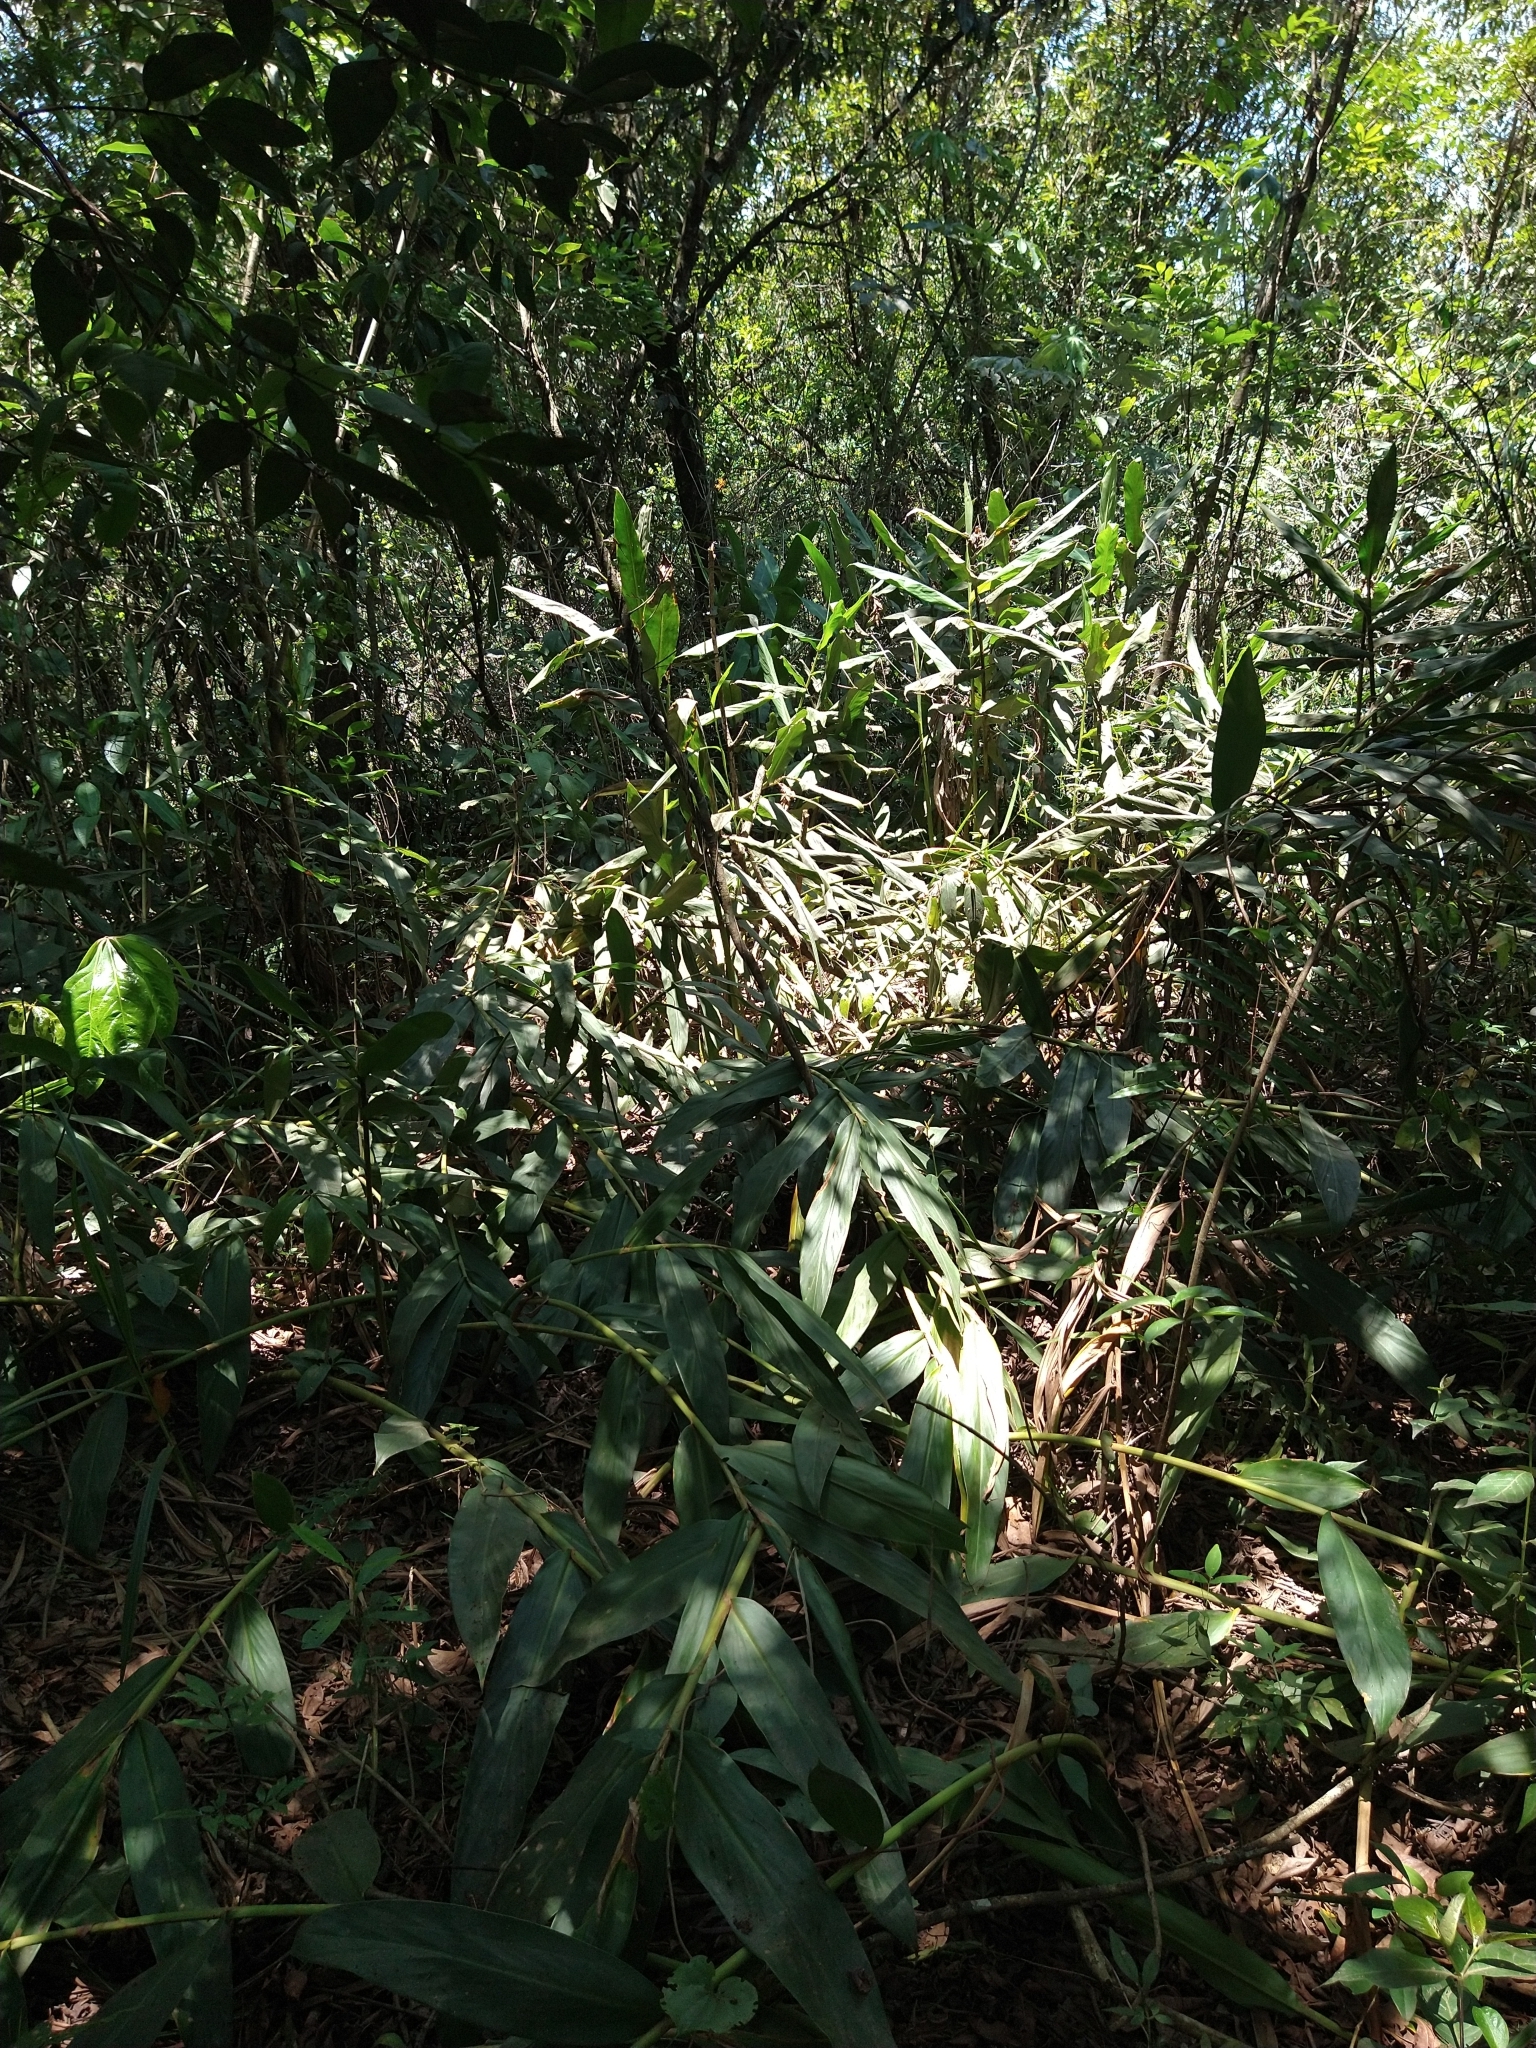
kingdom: Plantae
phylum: Tracheophyta
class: Liliopsida
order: Zingiberales
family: Zingiberaceae
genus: Hedychium
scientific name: Hedychium coronarium
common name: White garland-lily
